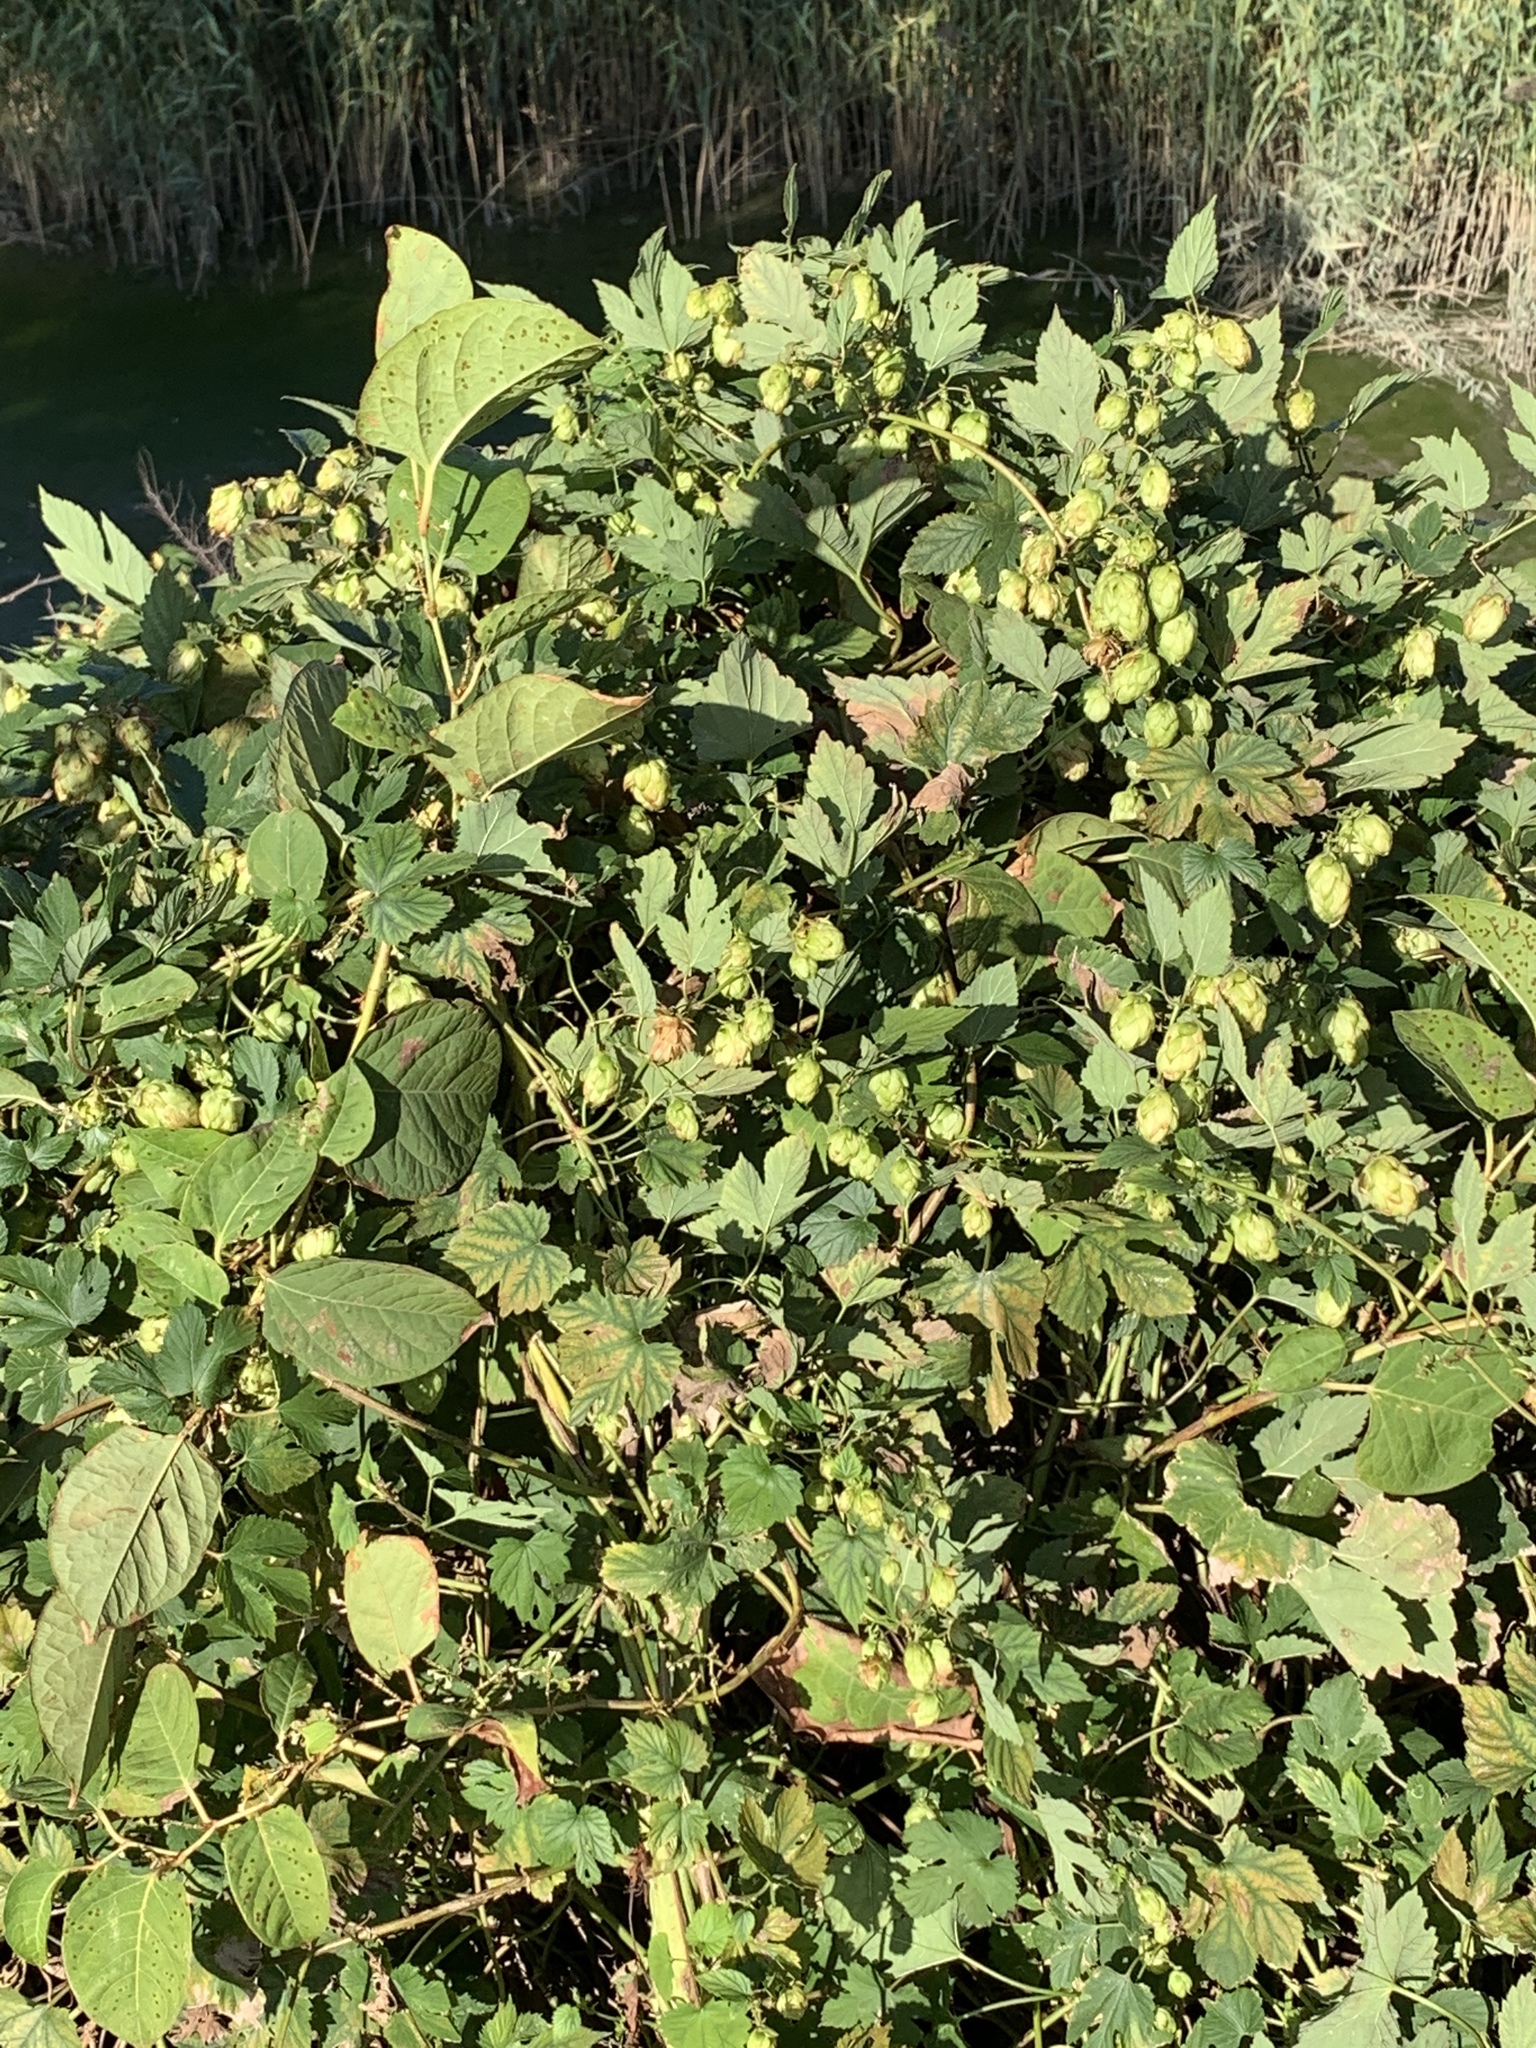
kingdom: Plantae
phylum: Tracheophyta
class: Magnoliopsida
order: Rosales
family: Cannabaceae
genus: Humulus
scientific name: Humulus lupulus
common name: Hop
